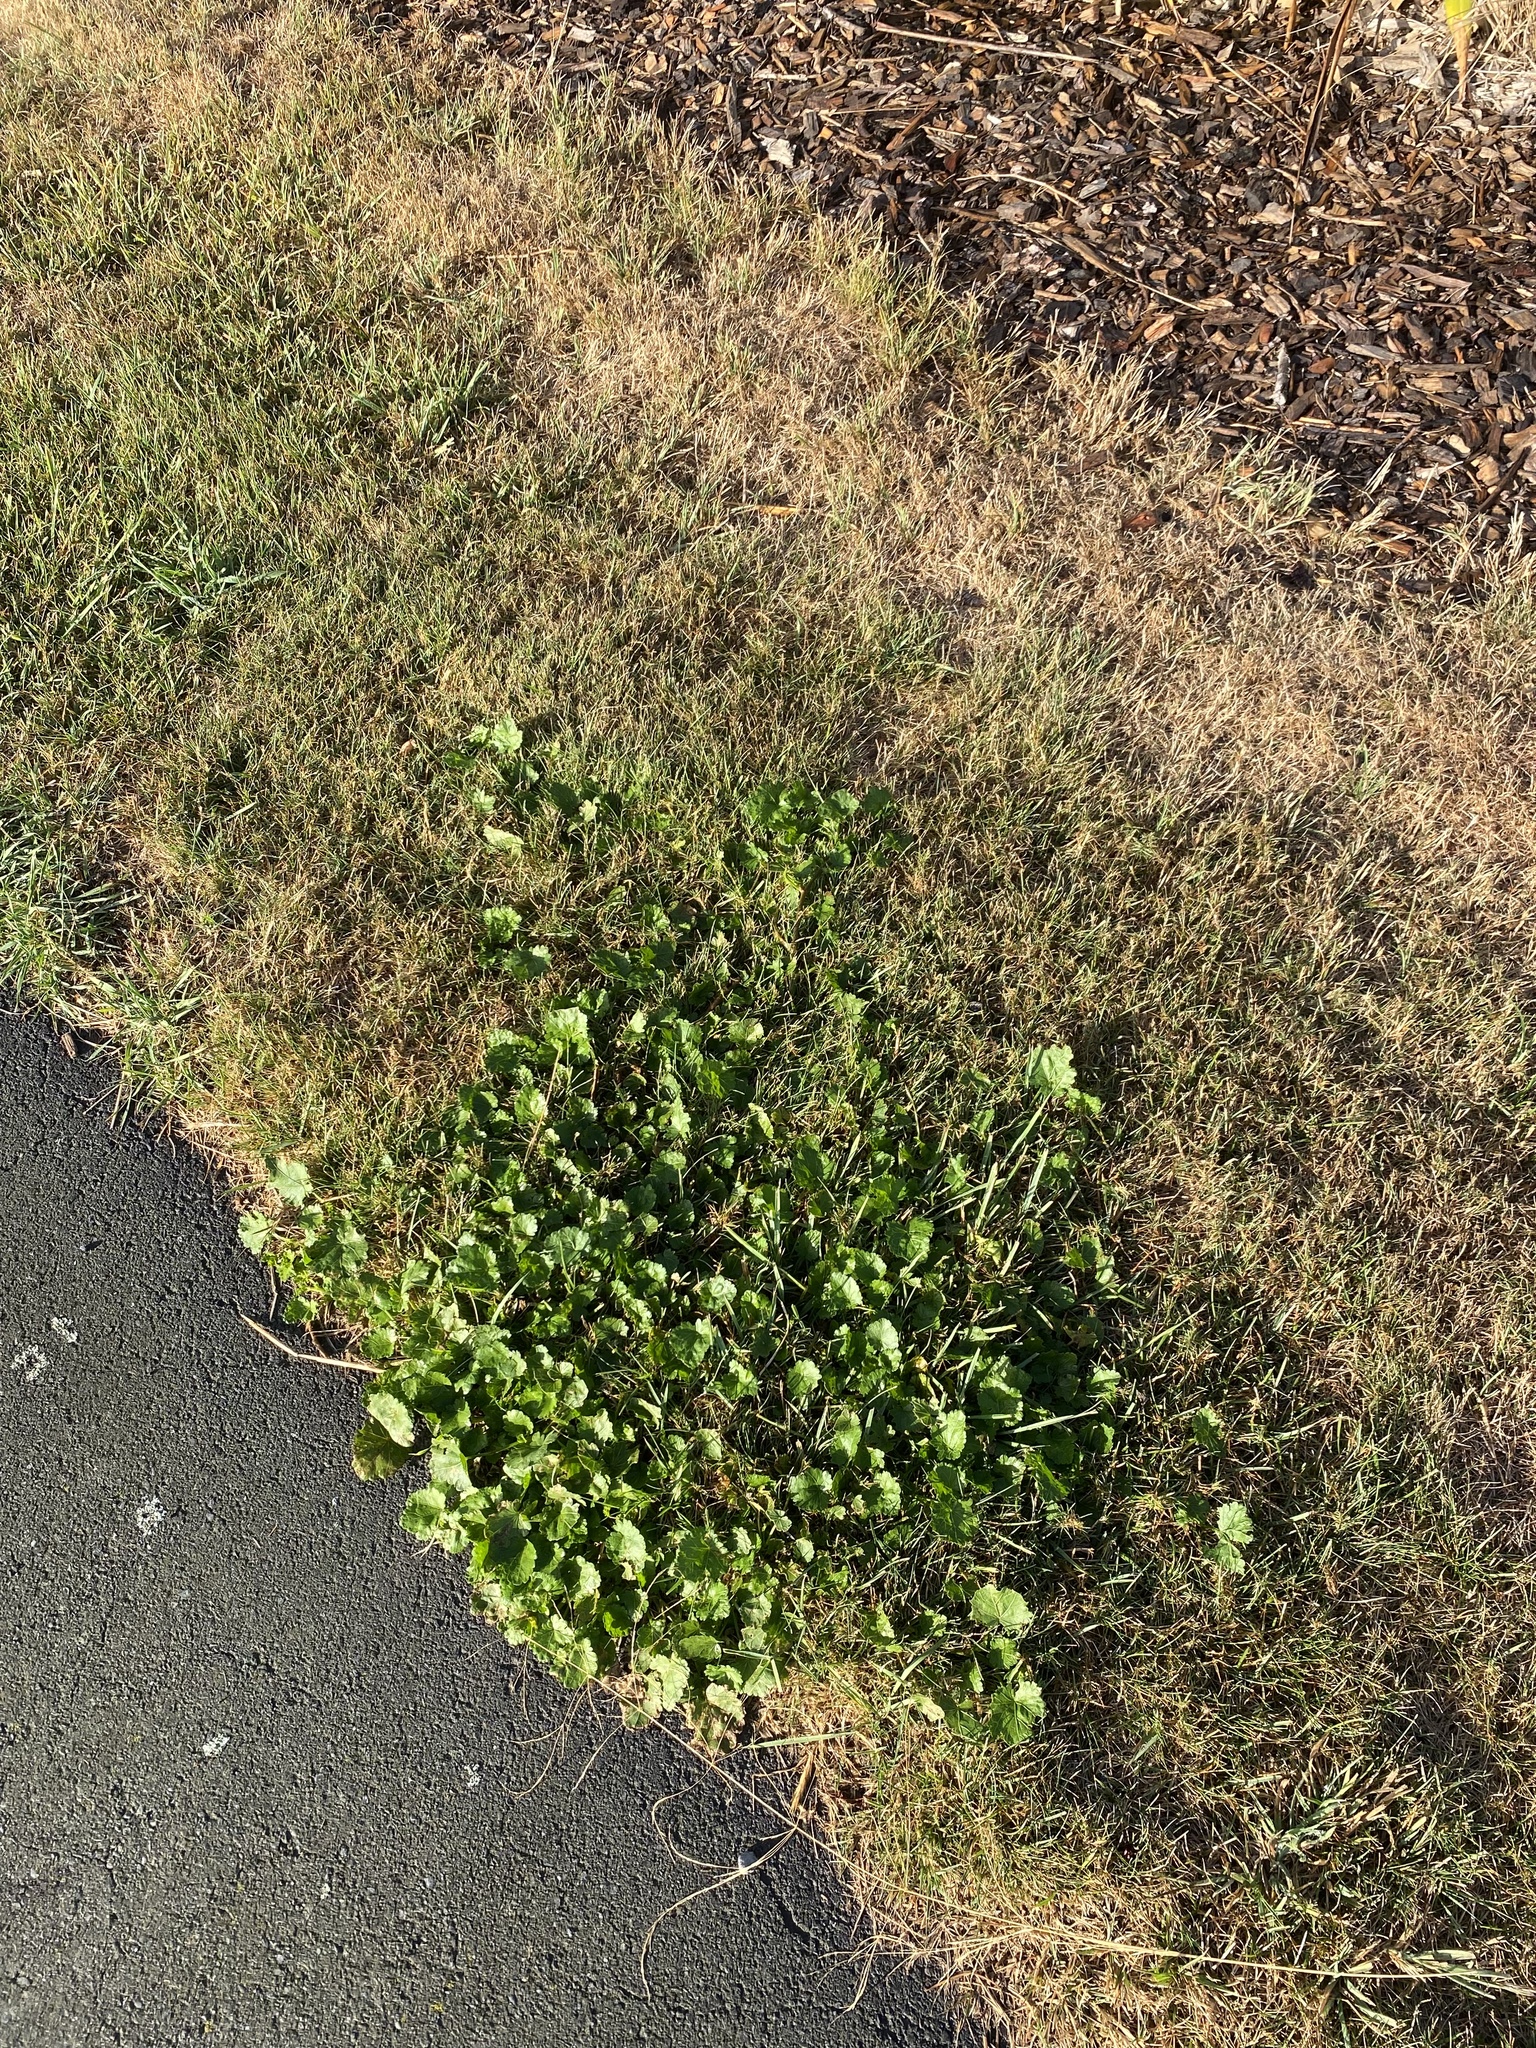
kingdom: Plantae
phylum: Tracheophyta
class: Magnoliopsida
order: Malvales
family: Malvaceae
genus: Modiola
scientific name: Modiola caroliniana
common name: Carolina bristlemallow
